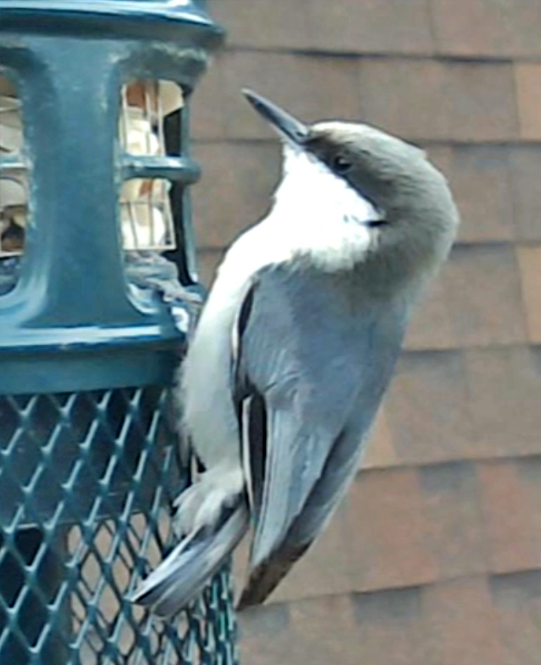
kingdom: Animalia
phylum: Chordata
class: Aves
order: Passeriformes
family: Sittidae
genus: Sitta
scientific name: Sitta pygmaea
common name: Pygmy nuthatch
